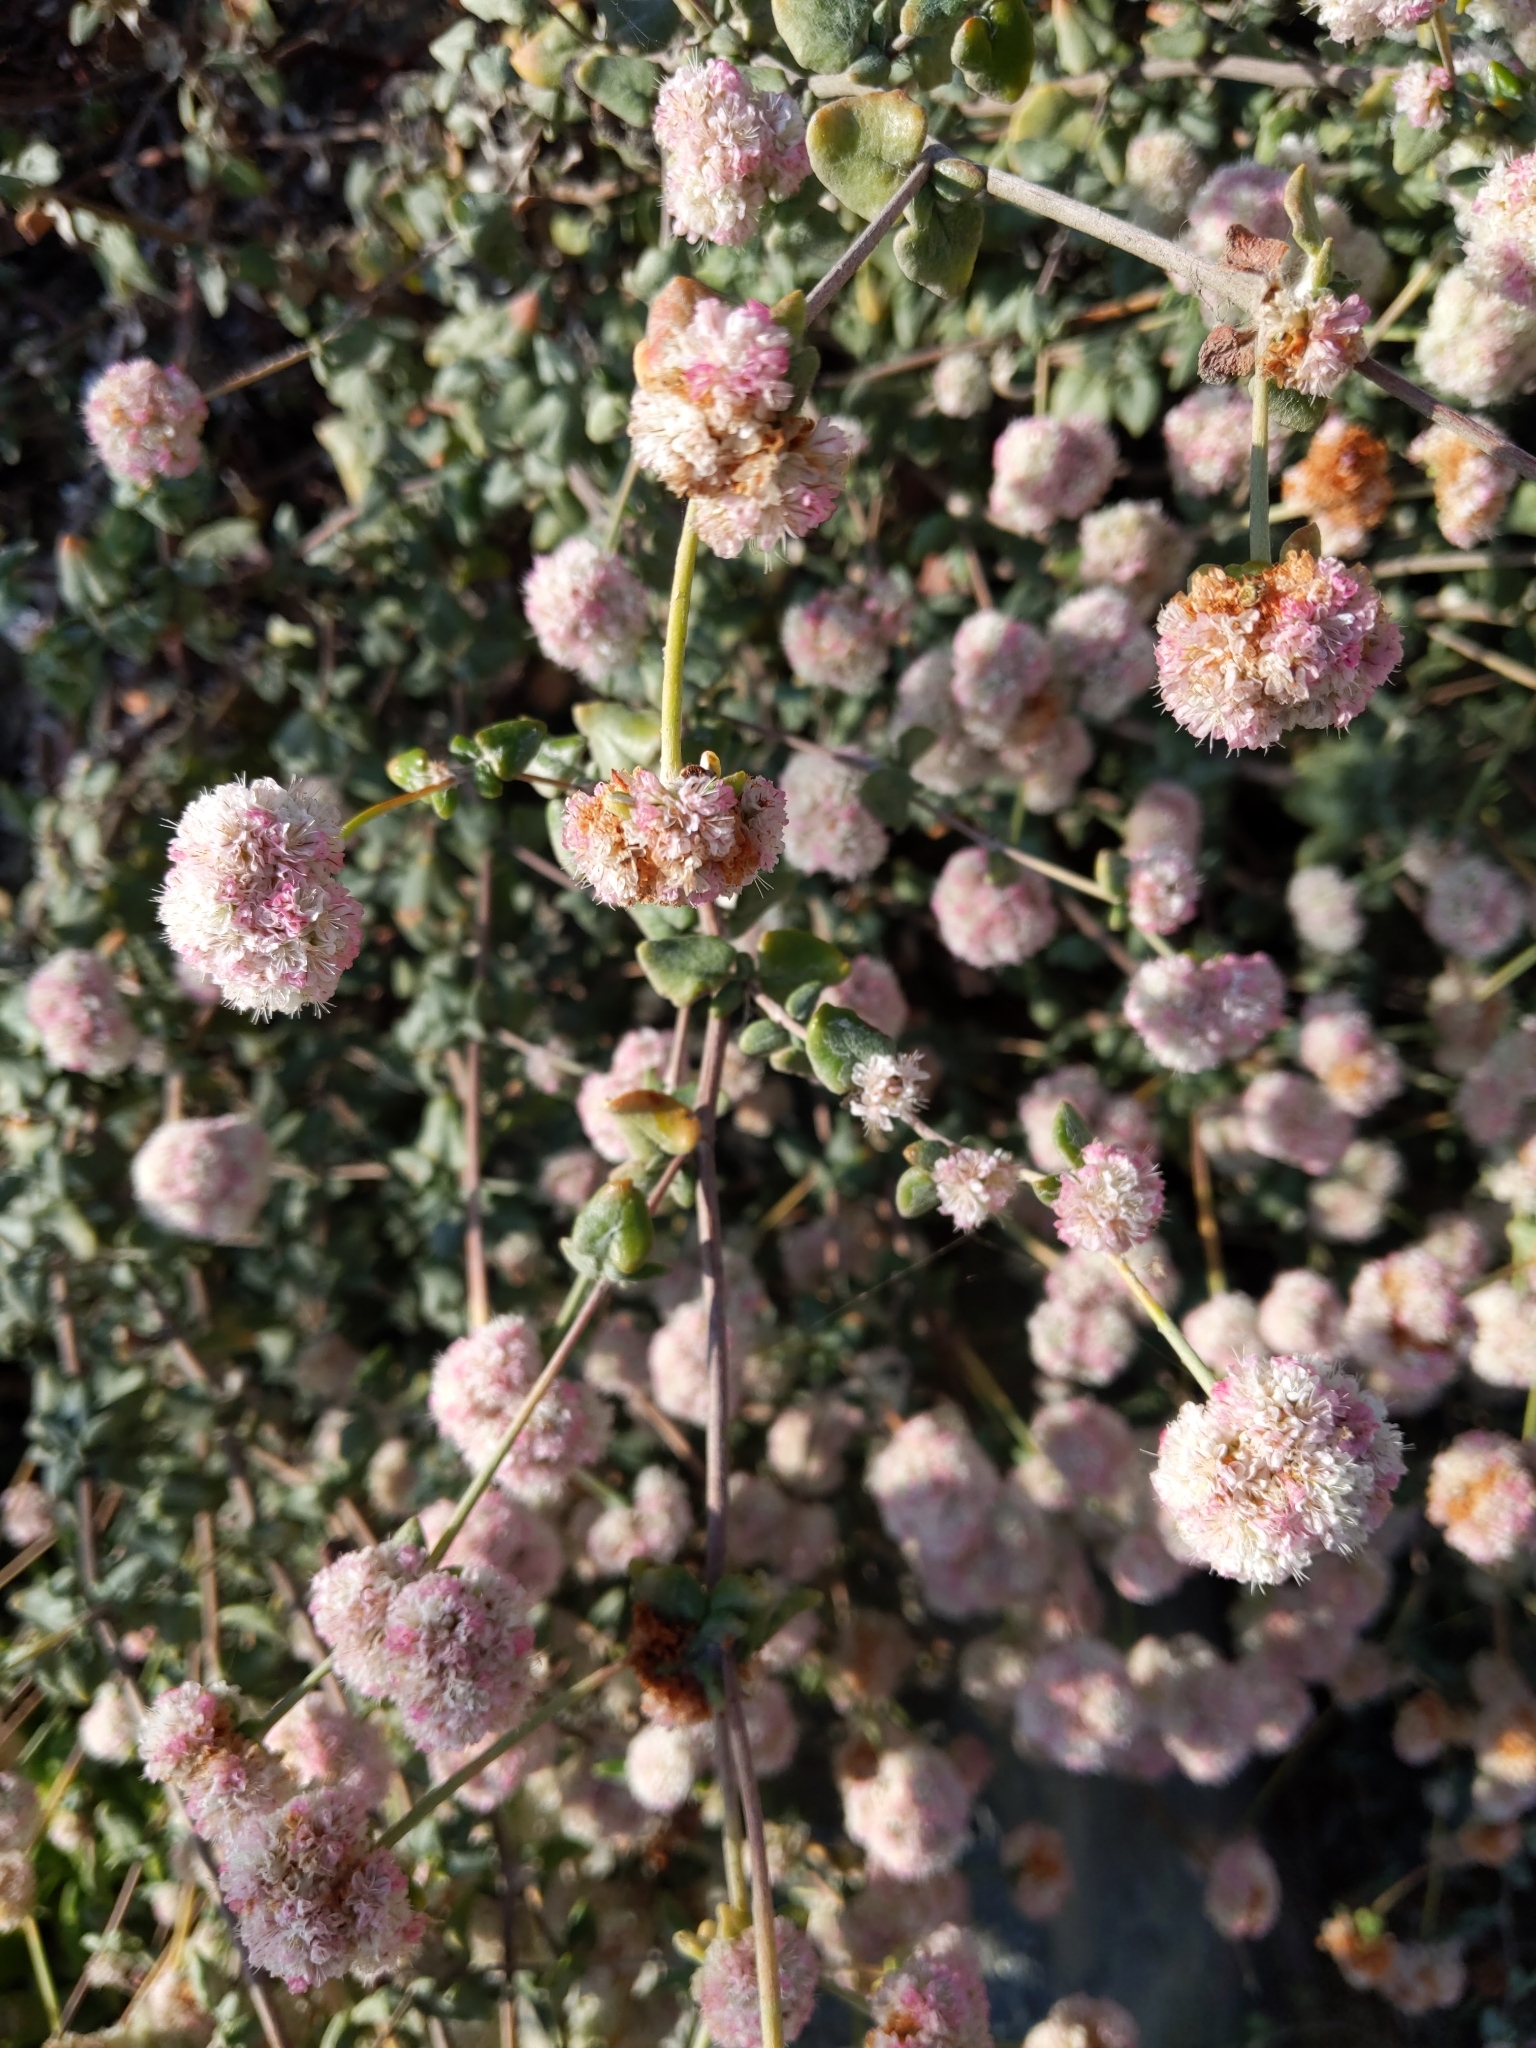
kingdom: Plantae
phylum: Tracheophyta
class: Magnoliopsida
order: Caryophyllales
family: Polygonaceae
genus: Eriogonum
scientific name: Eriogonum parvifolium
